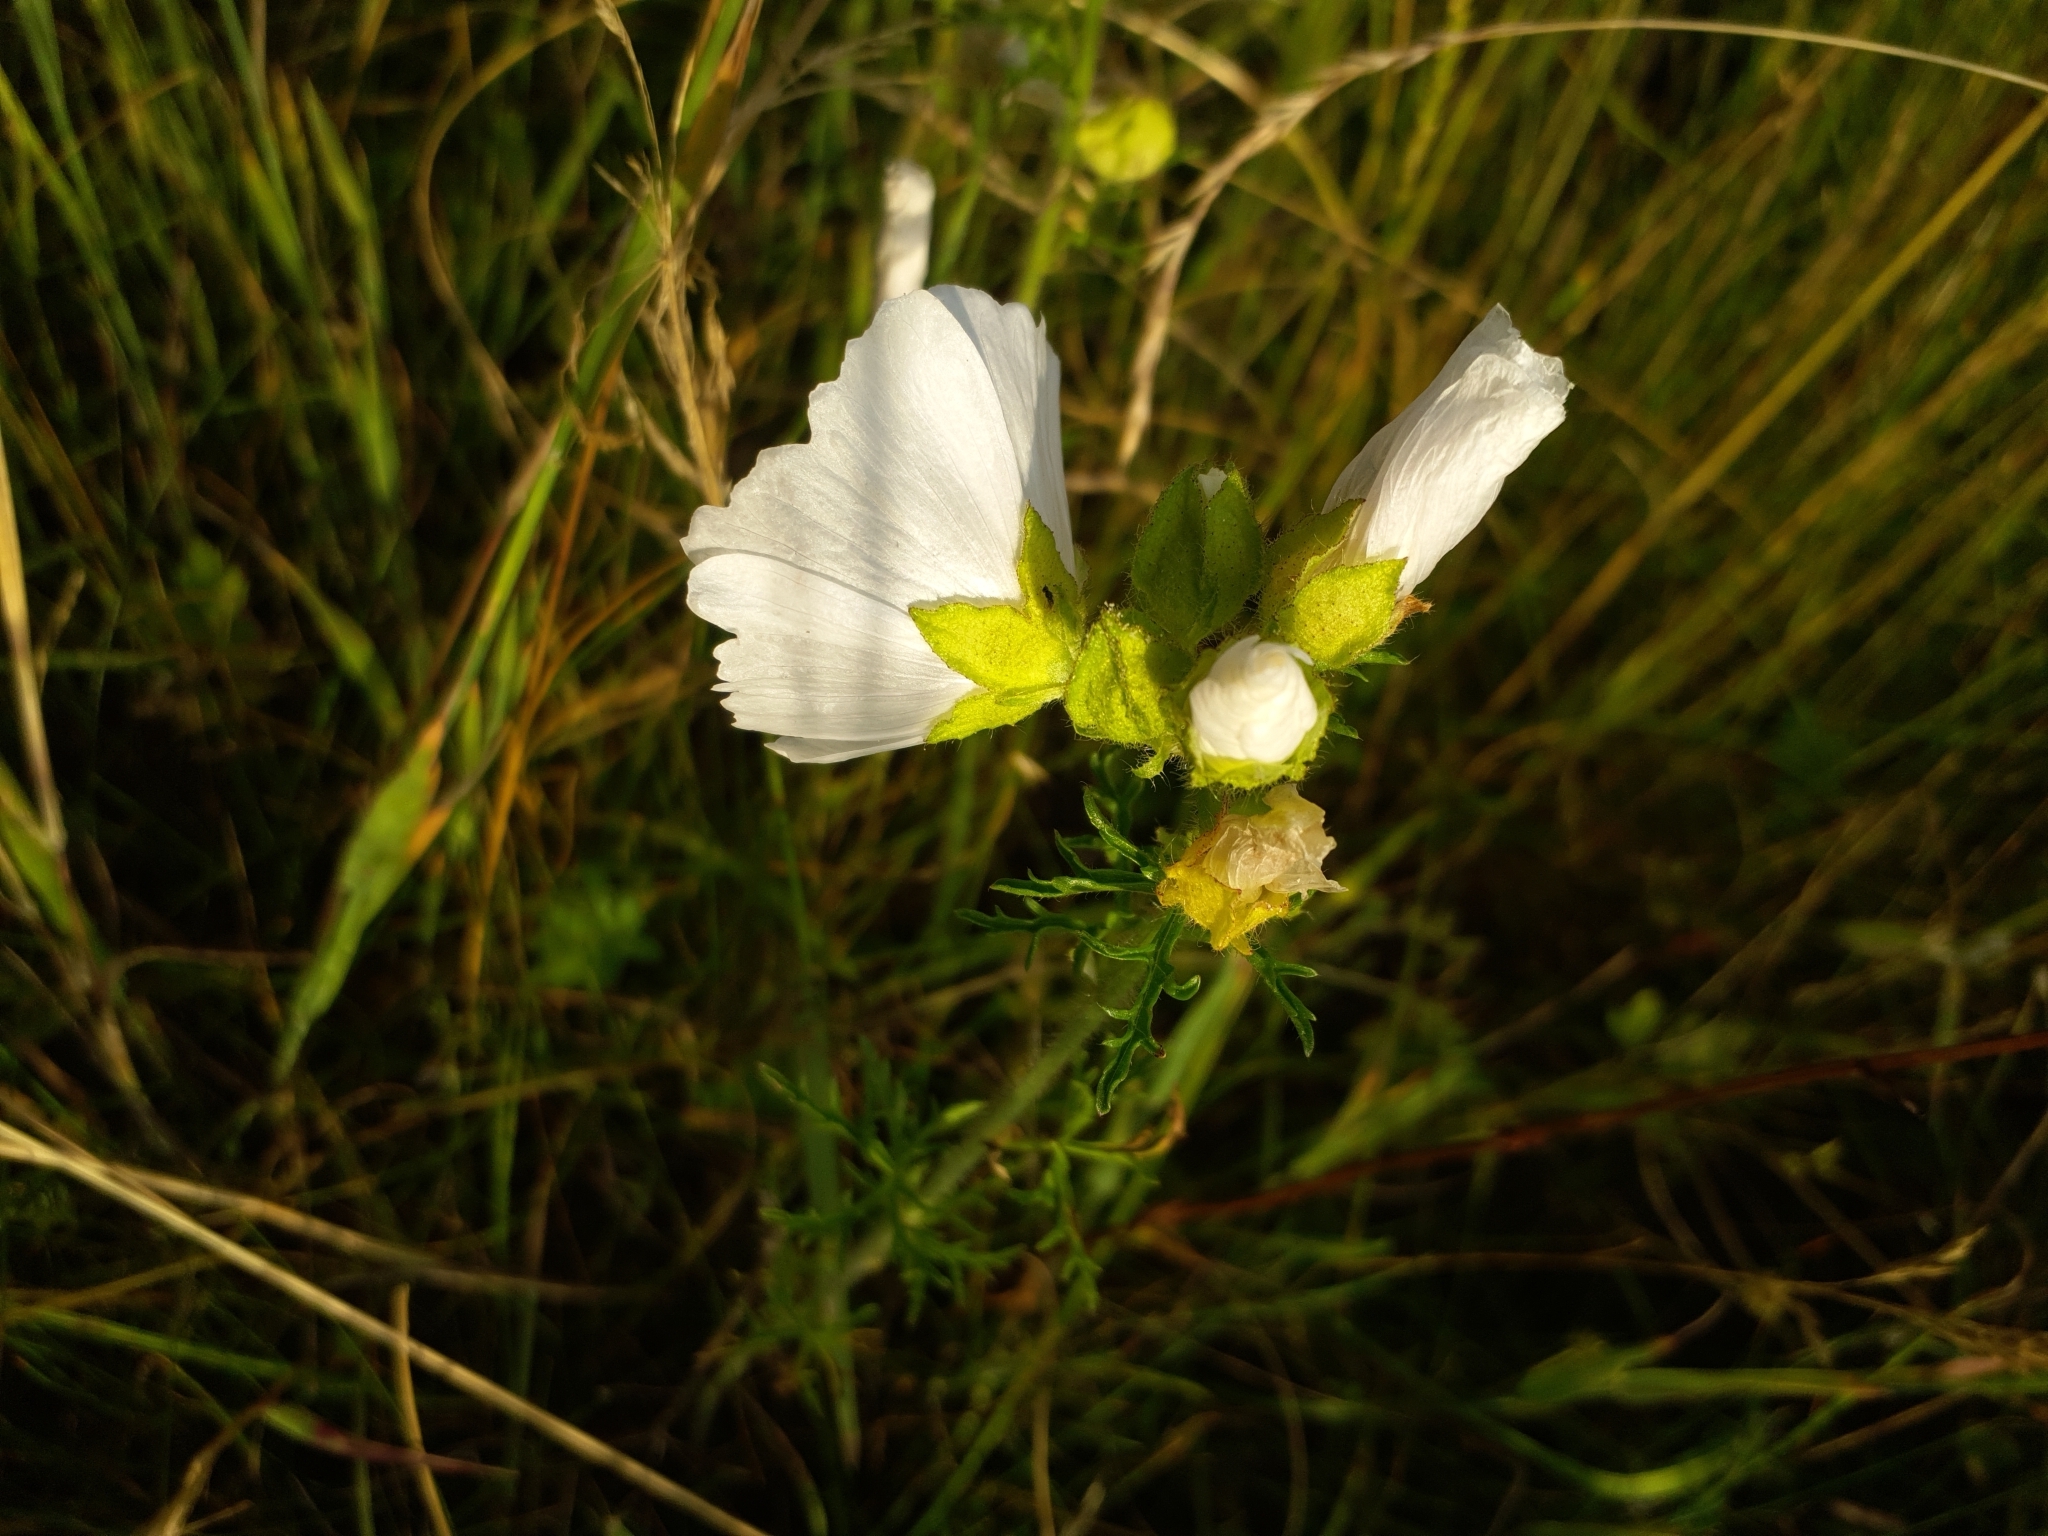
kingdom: Plantae
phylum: Tracheophyta
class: Magnoliopsida
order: Malvales
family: Malvaceae
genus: Malva
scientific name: Malva moschata
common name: Musk mallow
